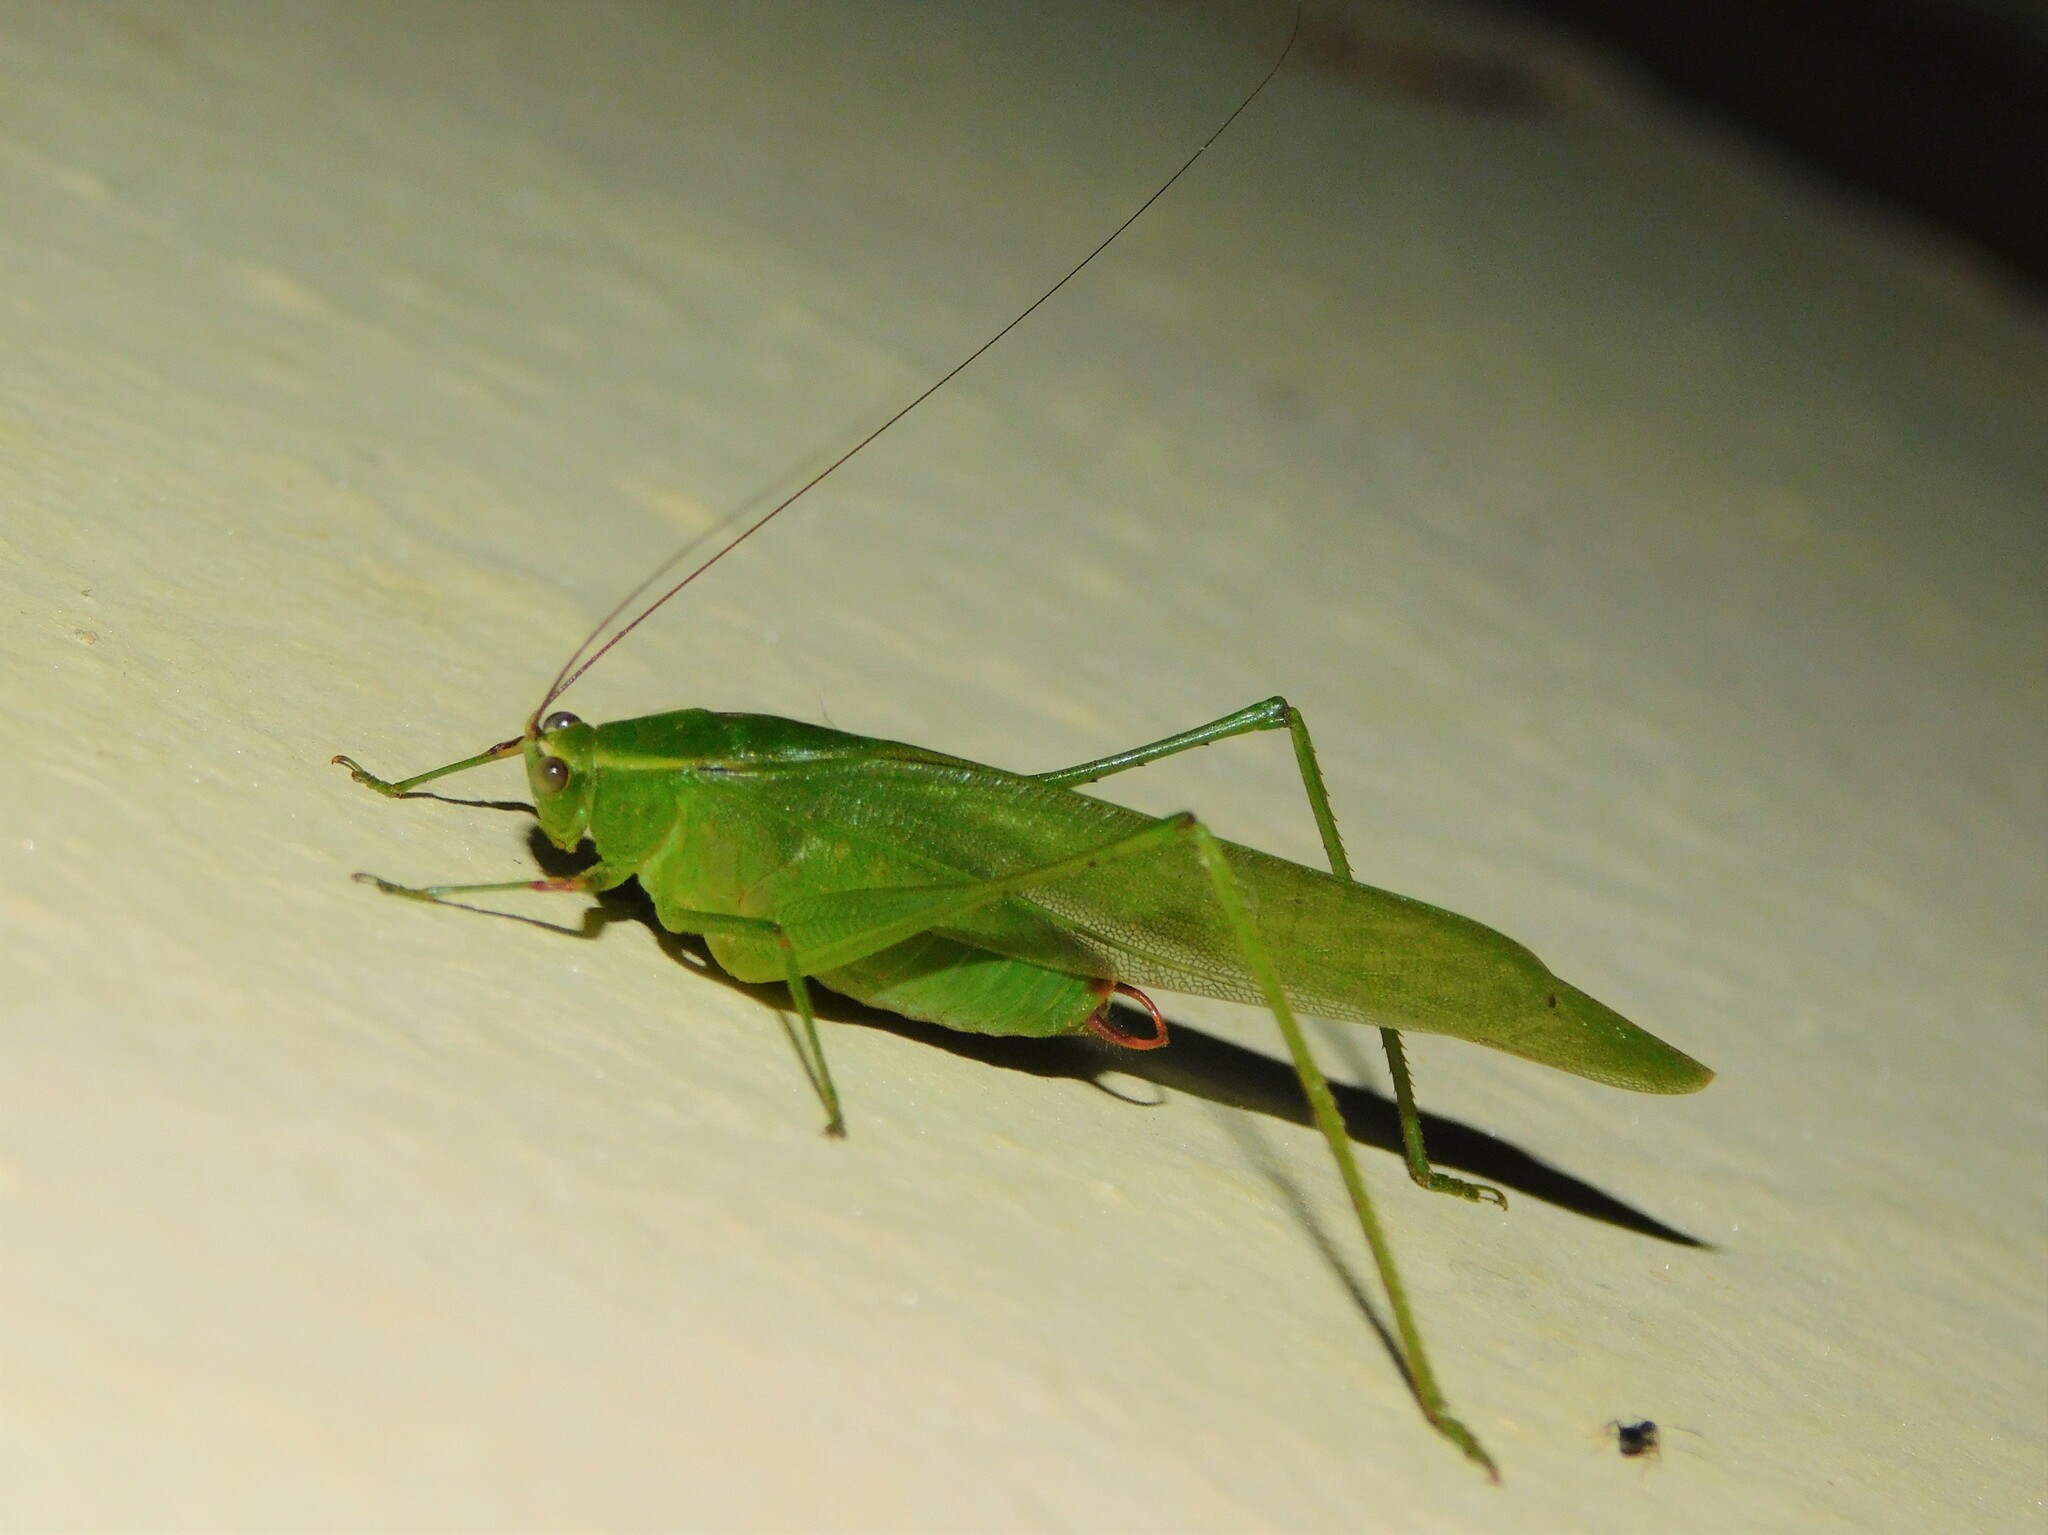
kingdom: Animalia
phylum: Arthropoda
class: Insecta
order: Orthoptera
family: Tettigoniidae
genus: Catoptropteryx
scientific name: Catoptropteryx ambigua
